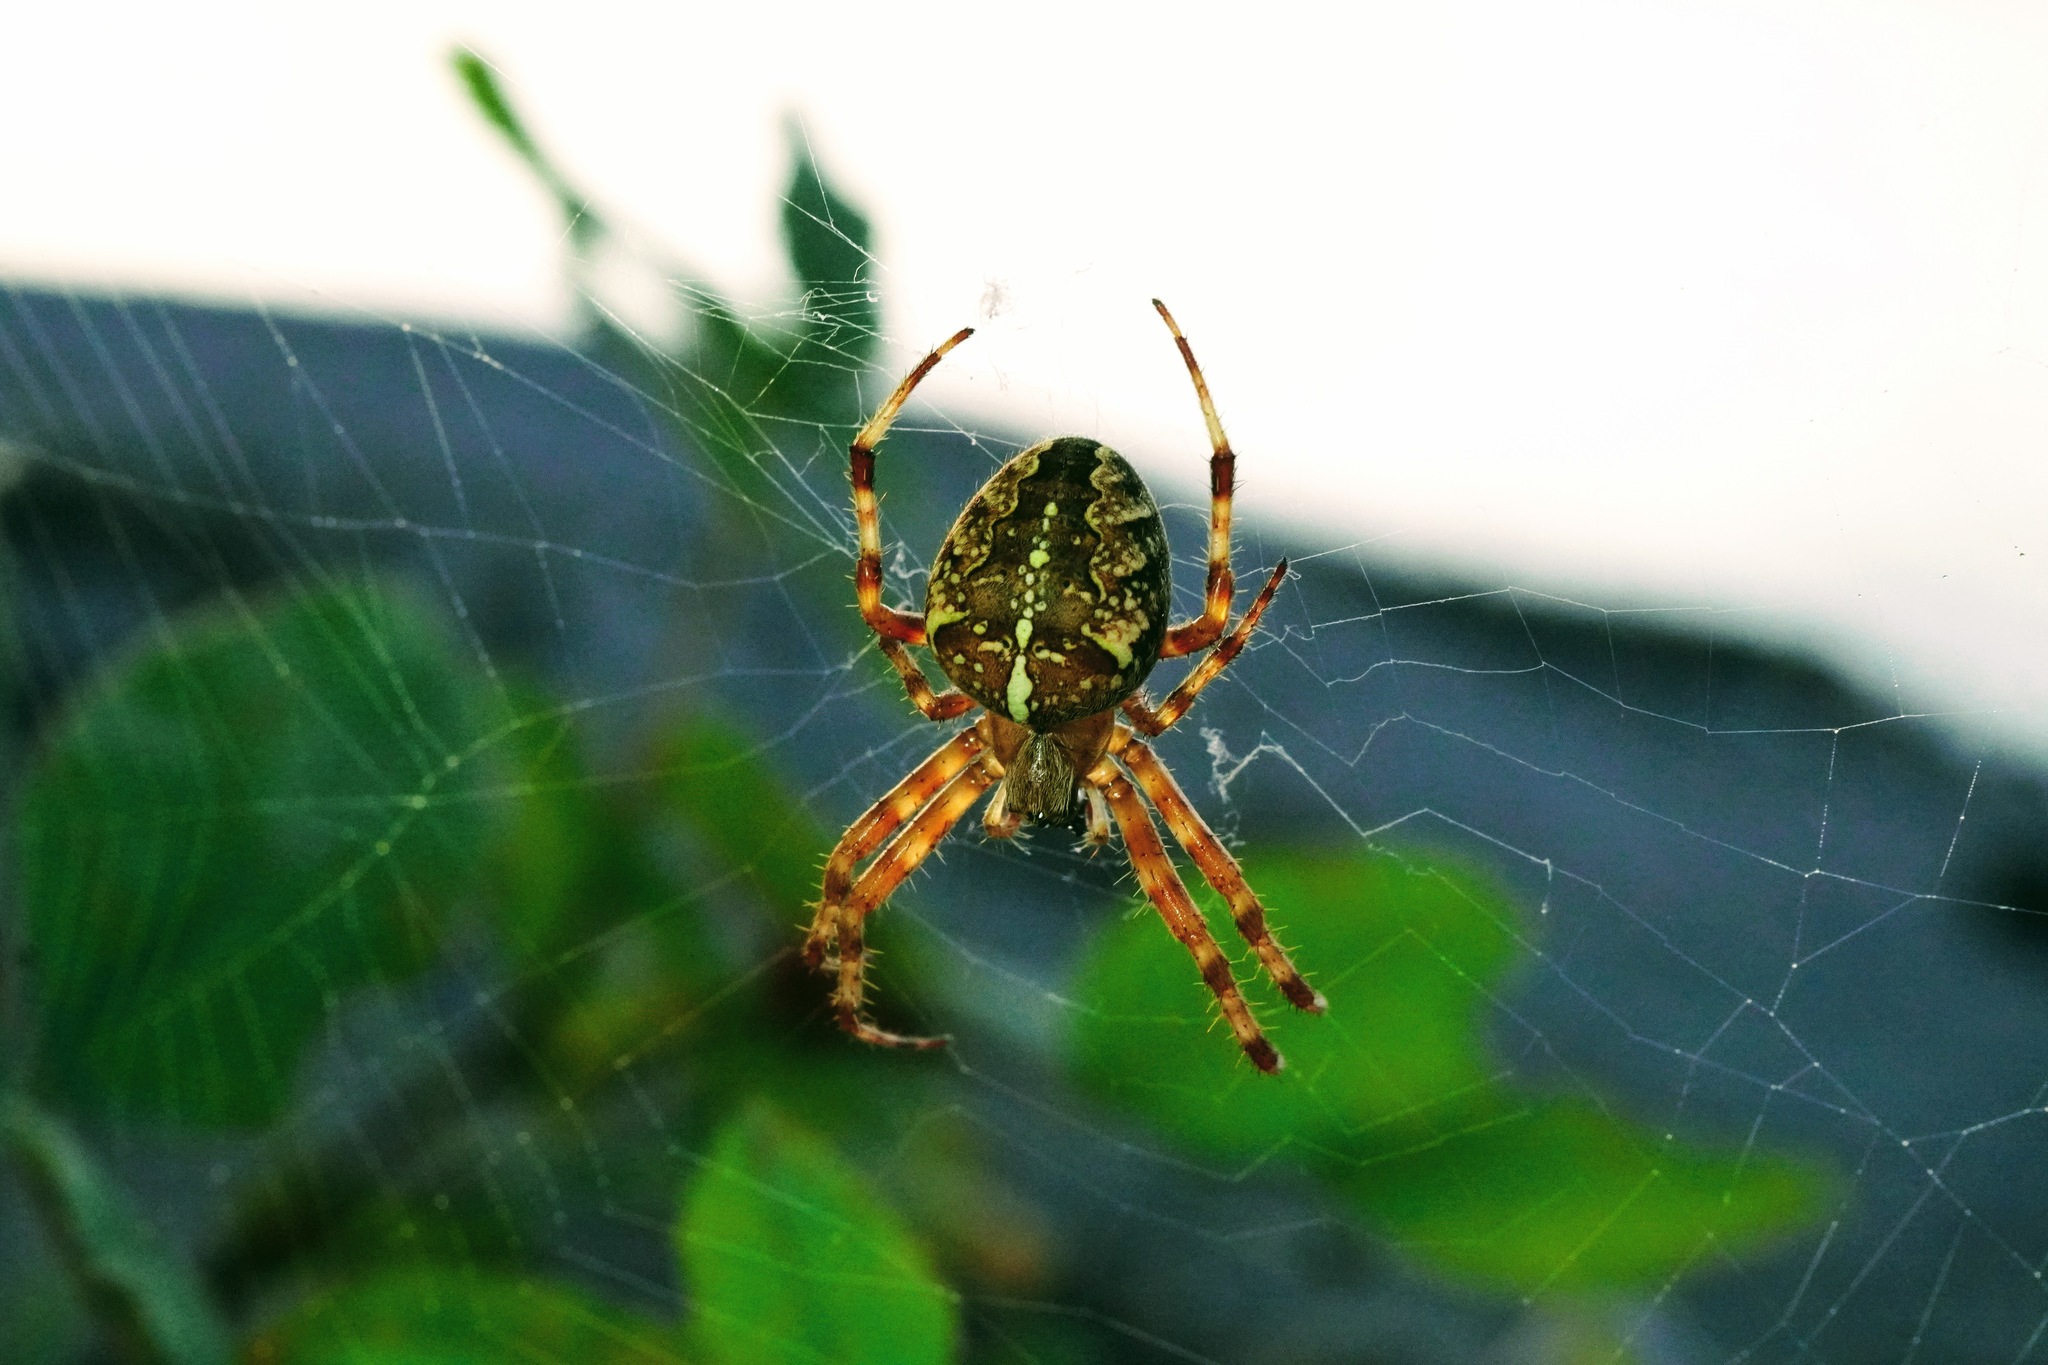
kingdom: Animalia
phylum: Arthropoda
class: Arachnida
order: Araneae
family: Araneidae
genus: Araneus
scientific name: Araneus diadematus
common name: Cross orbweaver
